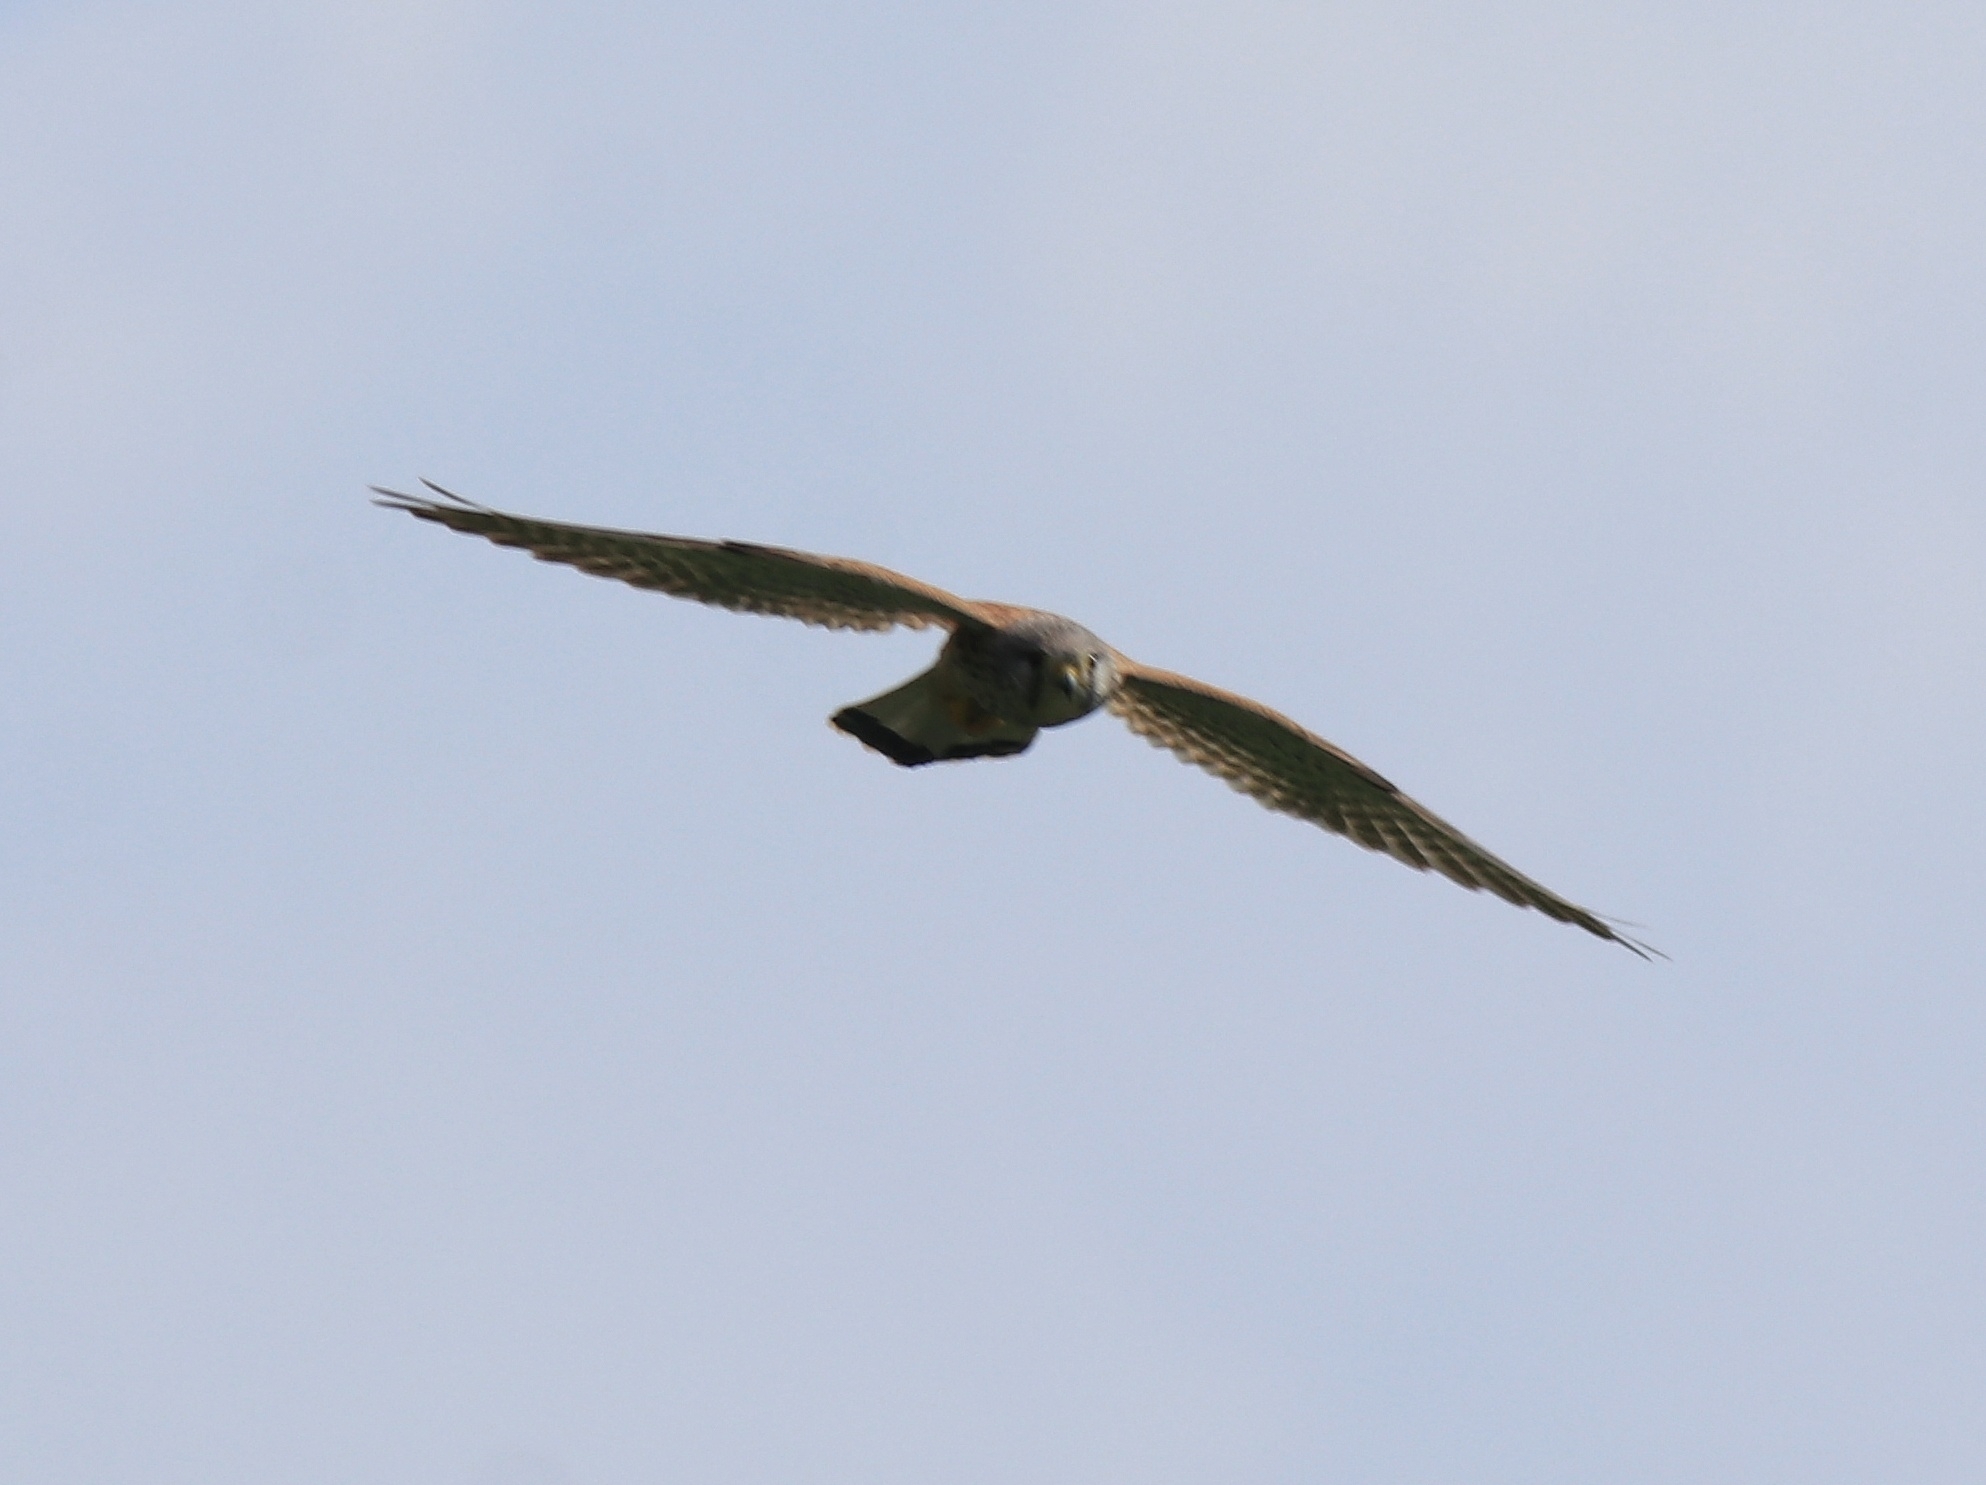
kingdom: Animalia
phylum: Chordata
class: Aves
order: Falconiformes
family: Falconidae
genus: Falco
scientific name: Falco tinnunculus
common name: Common kestrel
